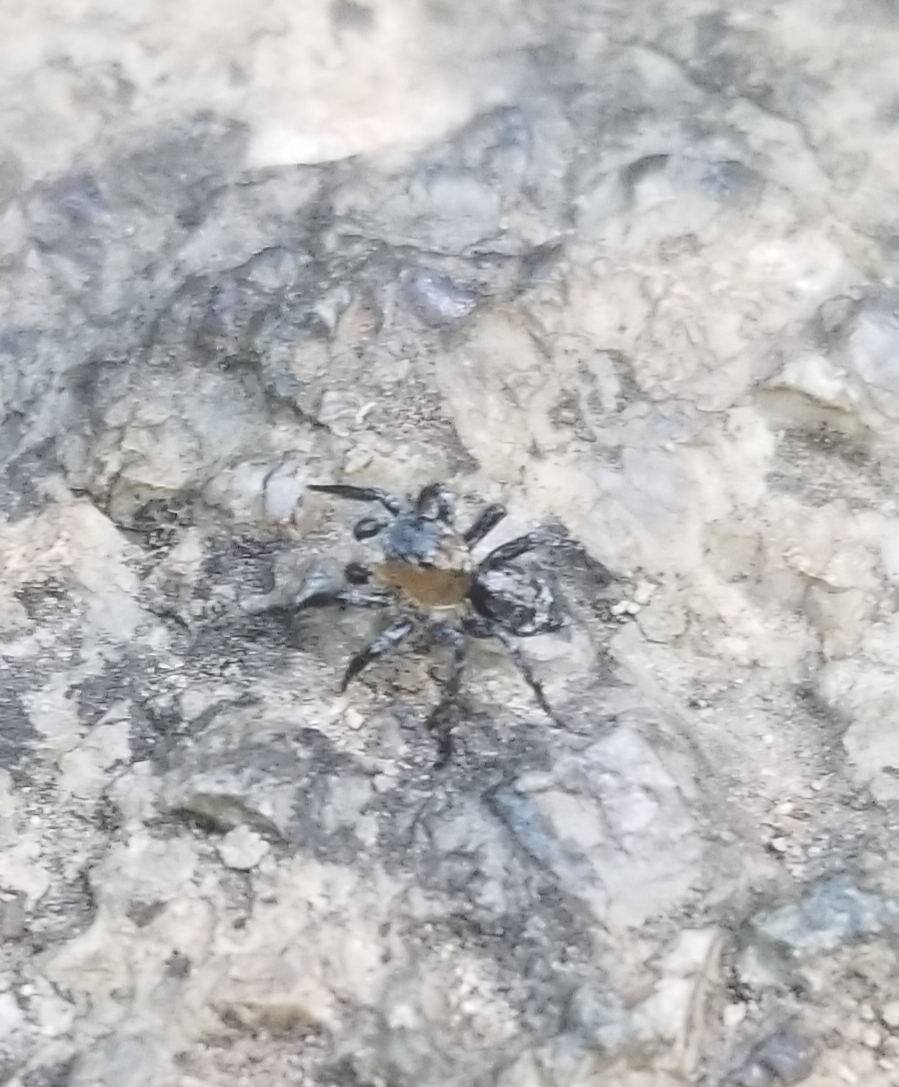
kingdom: Animalia
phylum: Arthropoda
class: Arachnida
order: Araneae
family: Salticidae
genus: Naphrys
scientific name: Naphrys pulex
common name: Flea jumping spider
